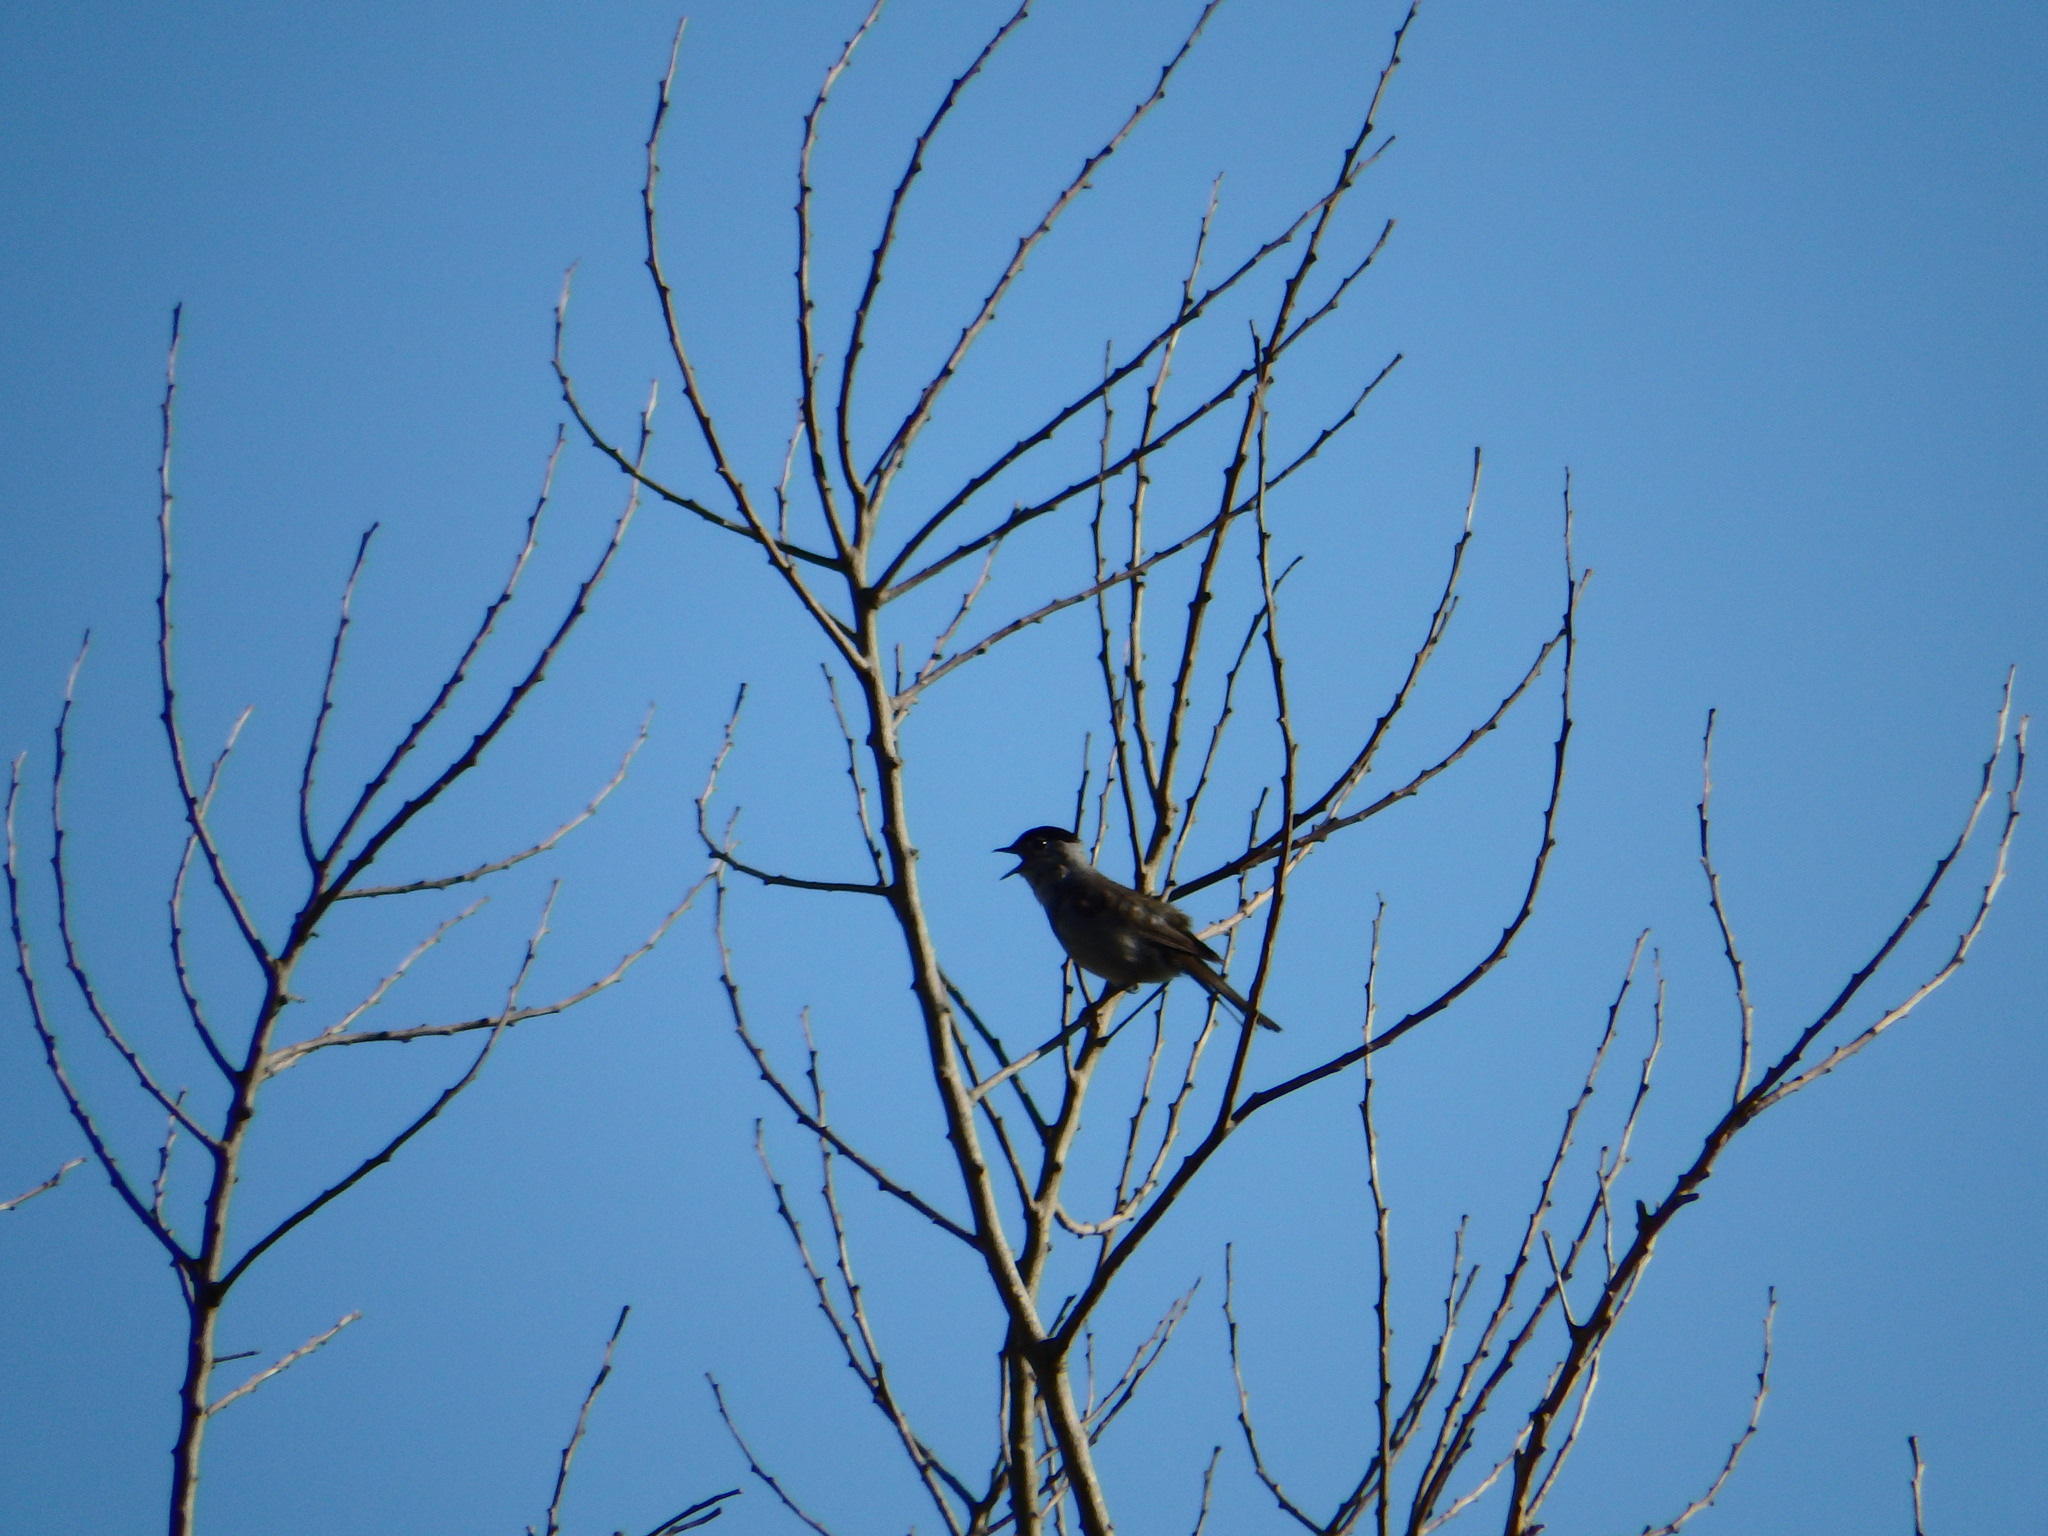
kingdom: Animalia
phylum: Chordata
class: Aves
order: Passeriformes
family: Sylviidae
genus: Sylvia
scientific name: Sylvia atricapilla
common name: Eurasian blackcap
